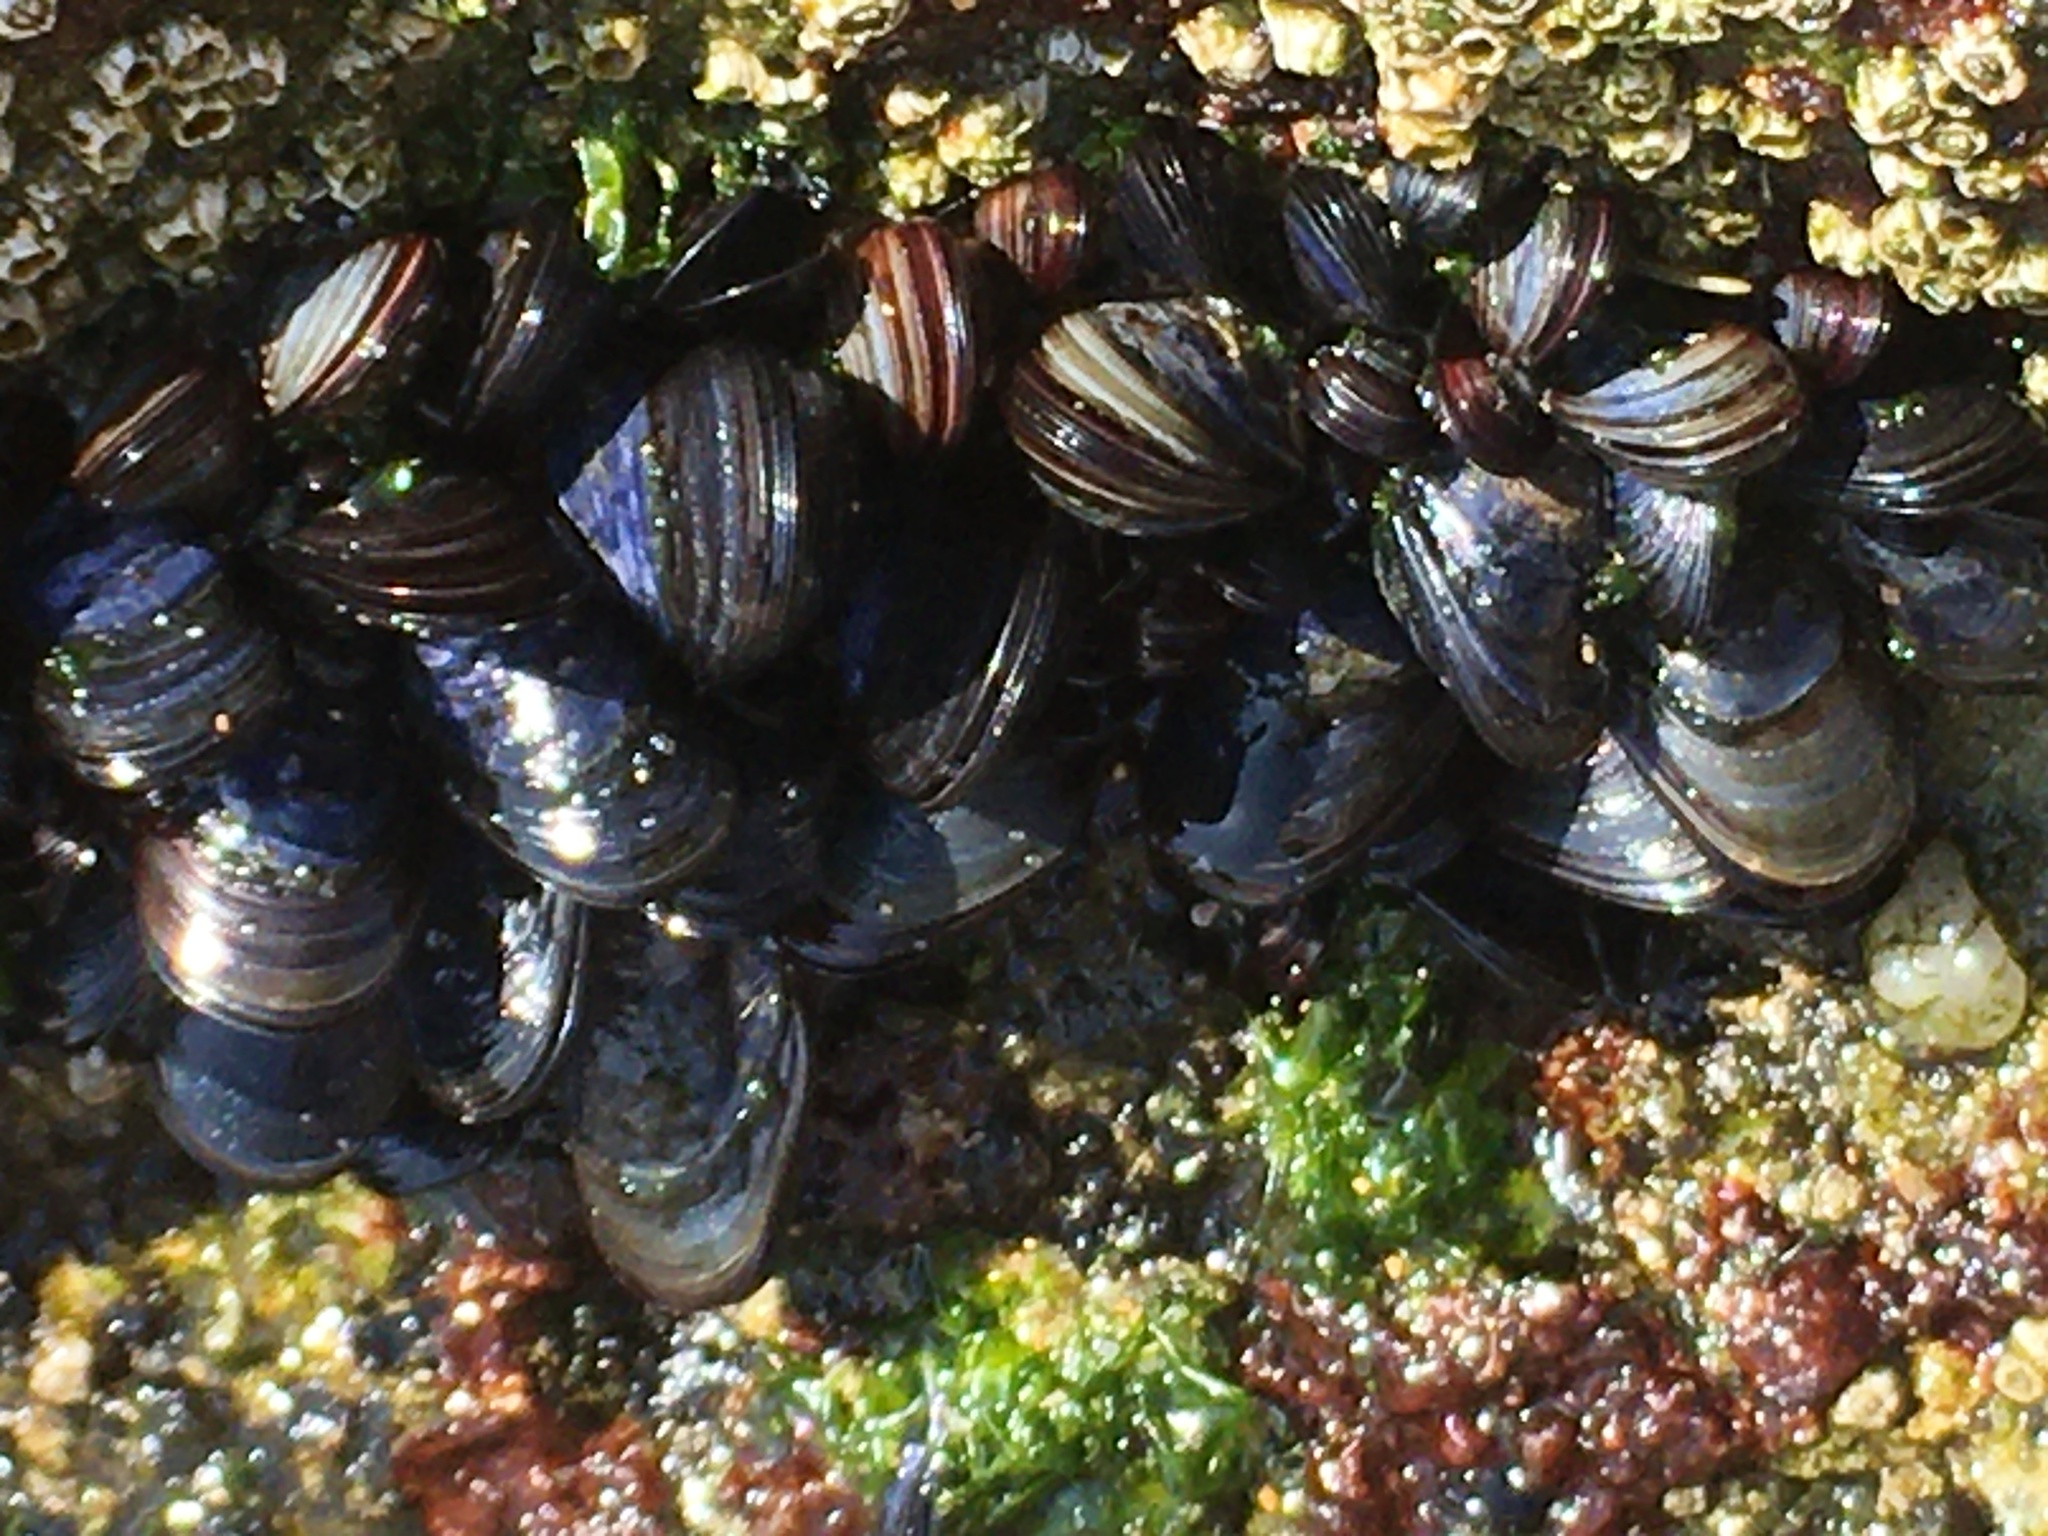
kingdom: Animalia
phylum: Mollusca
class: Bivalvia
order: Mytilida
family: Mytilidae
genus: Mytilus
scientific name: Mytilus galloprovincialis
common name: Mediterranean mussel
